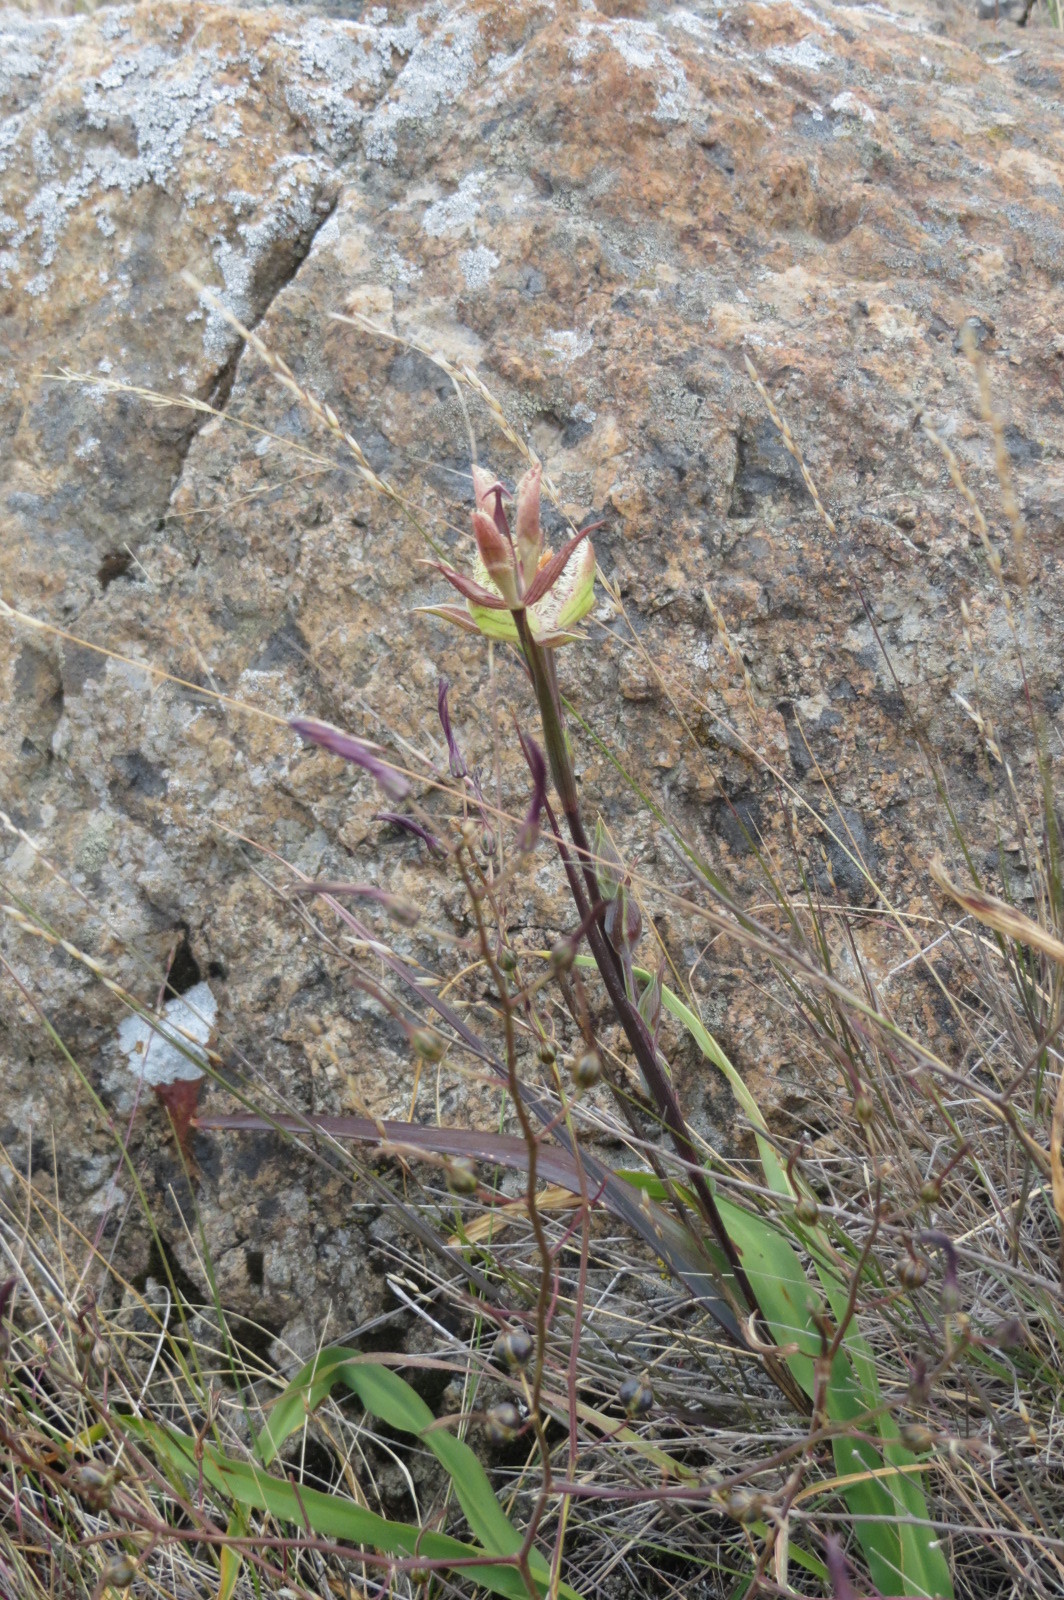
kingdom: Plantae
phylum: Tracheophyta
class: Liliopsida
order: Liliales
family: Liliaceae
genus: Calochortus
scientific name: Calochortus tiburonensis
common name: Tiburon mariposa-lily
